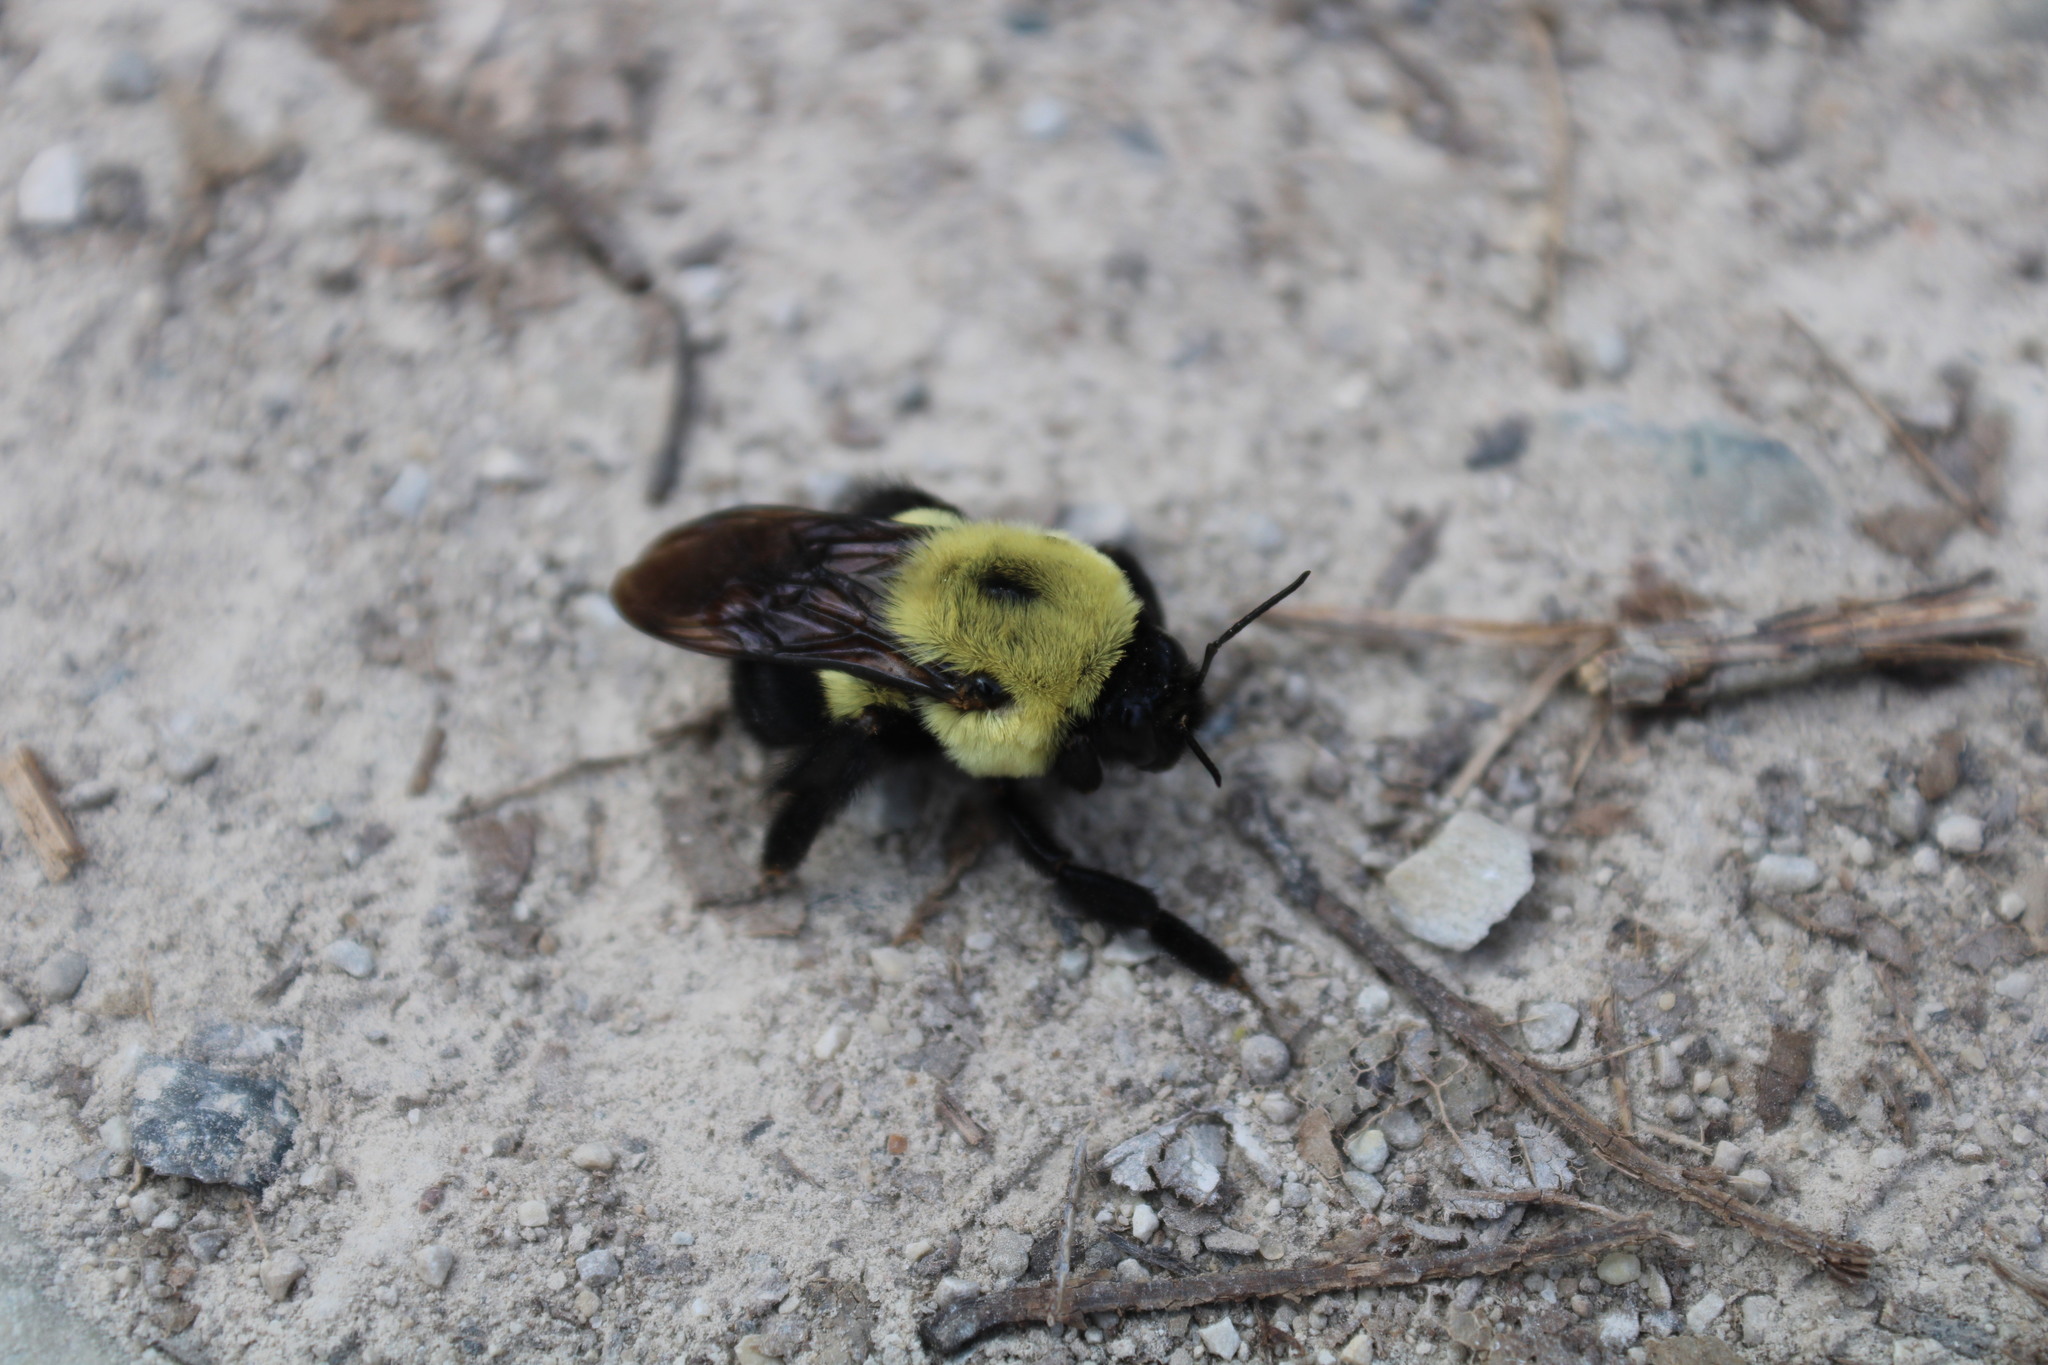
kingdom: Animalia
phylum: Arthropoda
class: Insecta
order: Hymenoptera
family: Apidae
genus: Bombus
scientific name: Bombus griseocollis
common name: Brown-belted bumble bee
